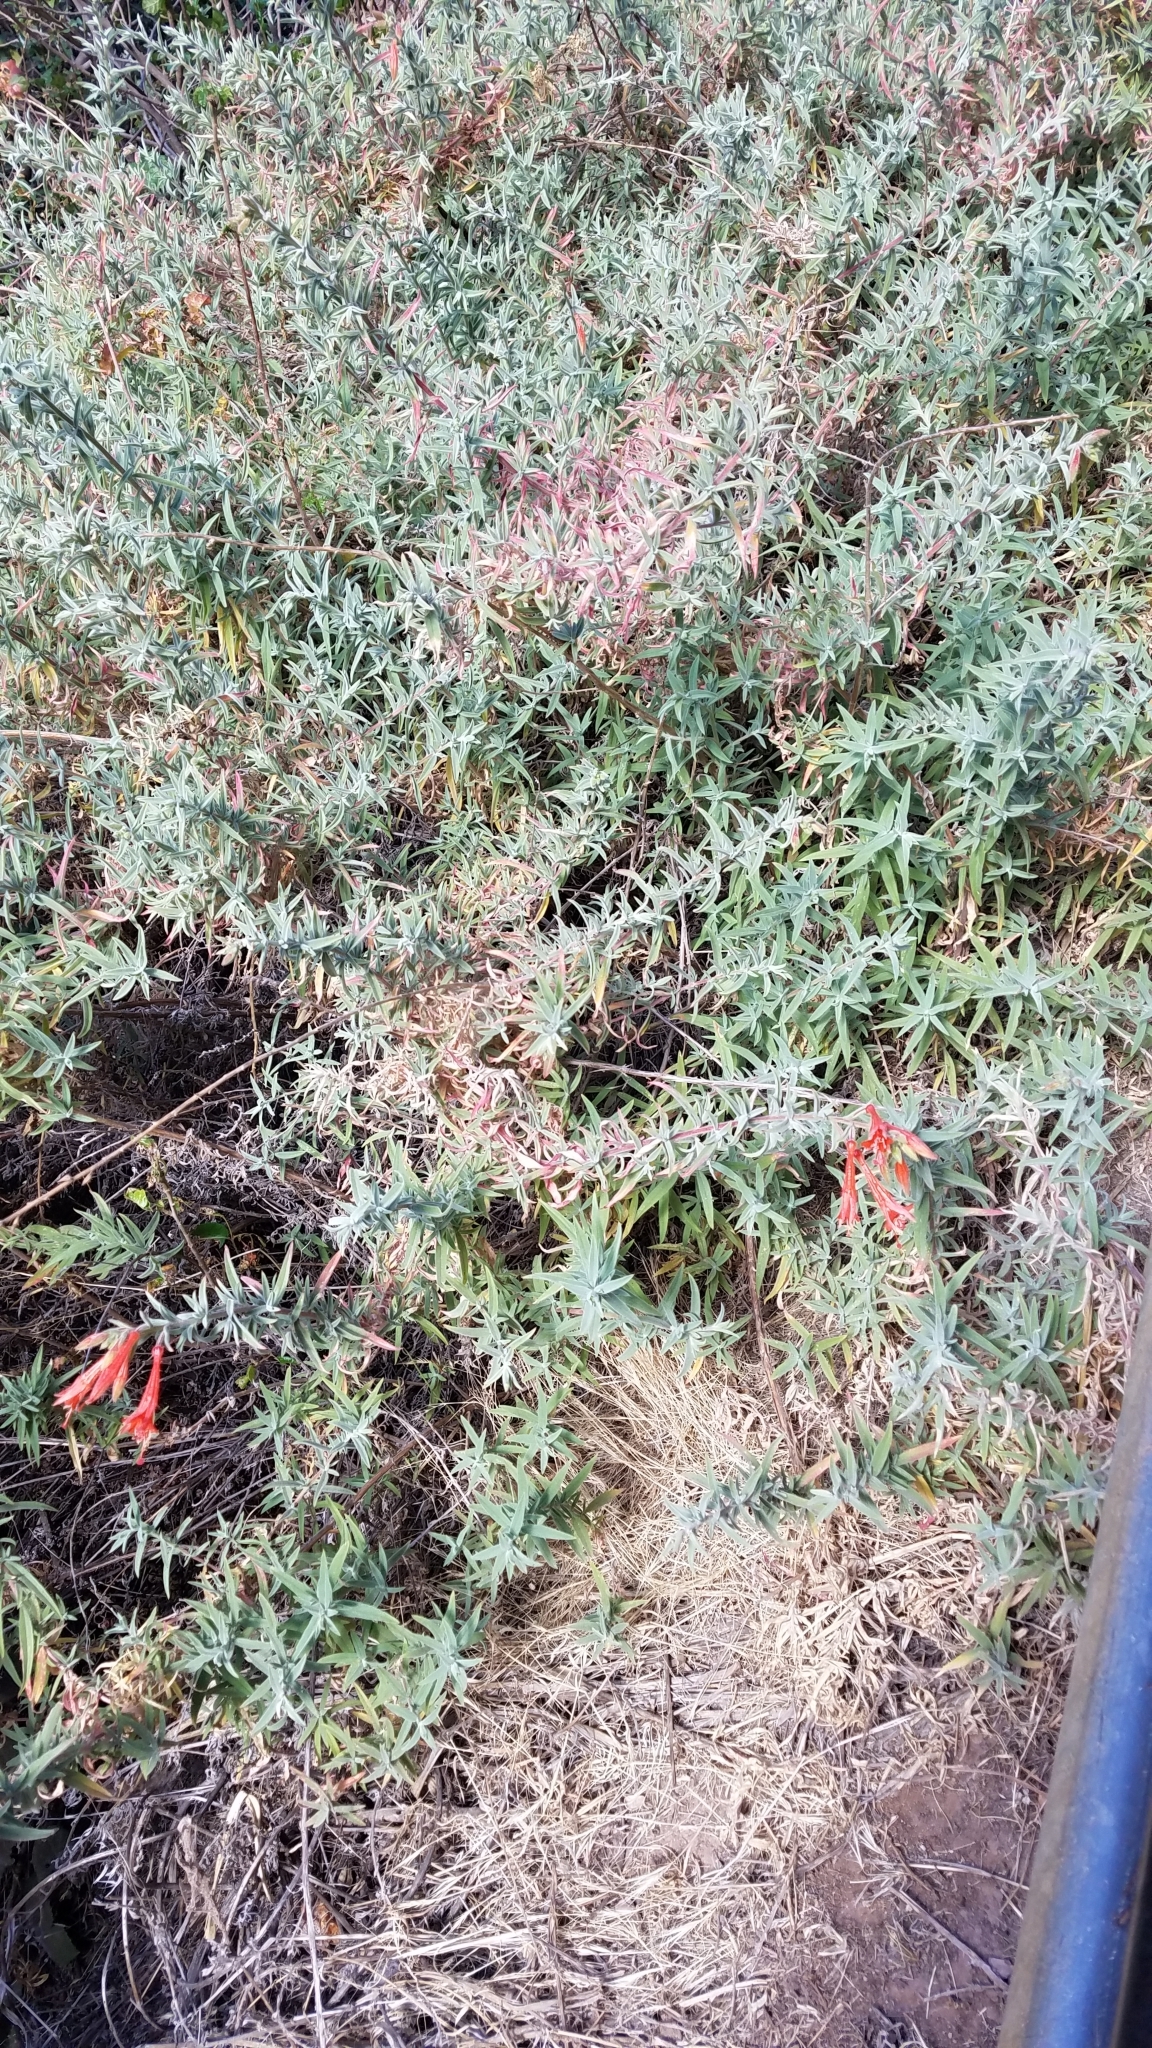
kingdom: Plantae
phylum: Tracheophyta
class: Magnoliopsida
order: Myrtales
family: Onagraceae
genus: Epilobium
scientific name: Epilobium canum
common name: California-fuchsia
